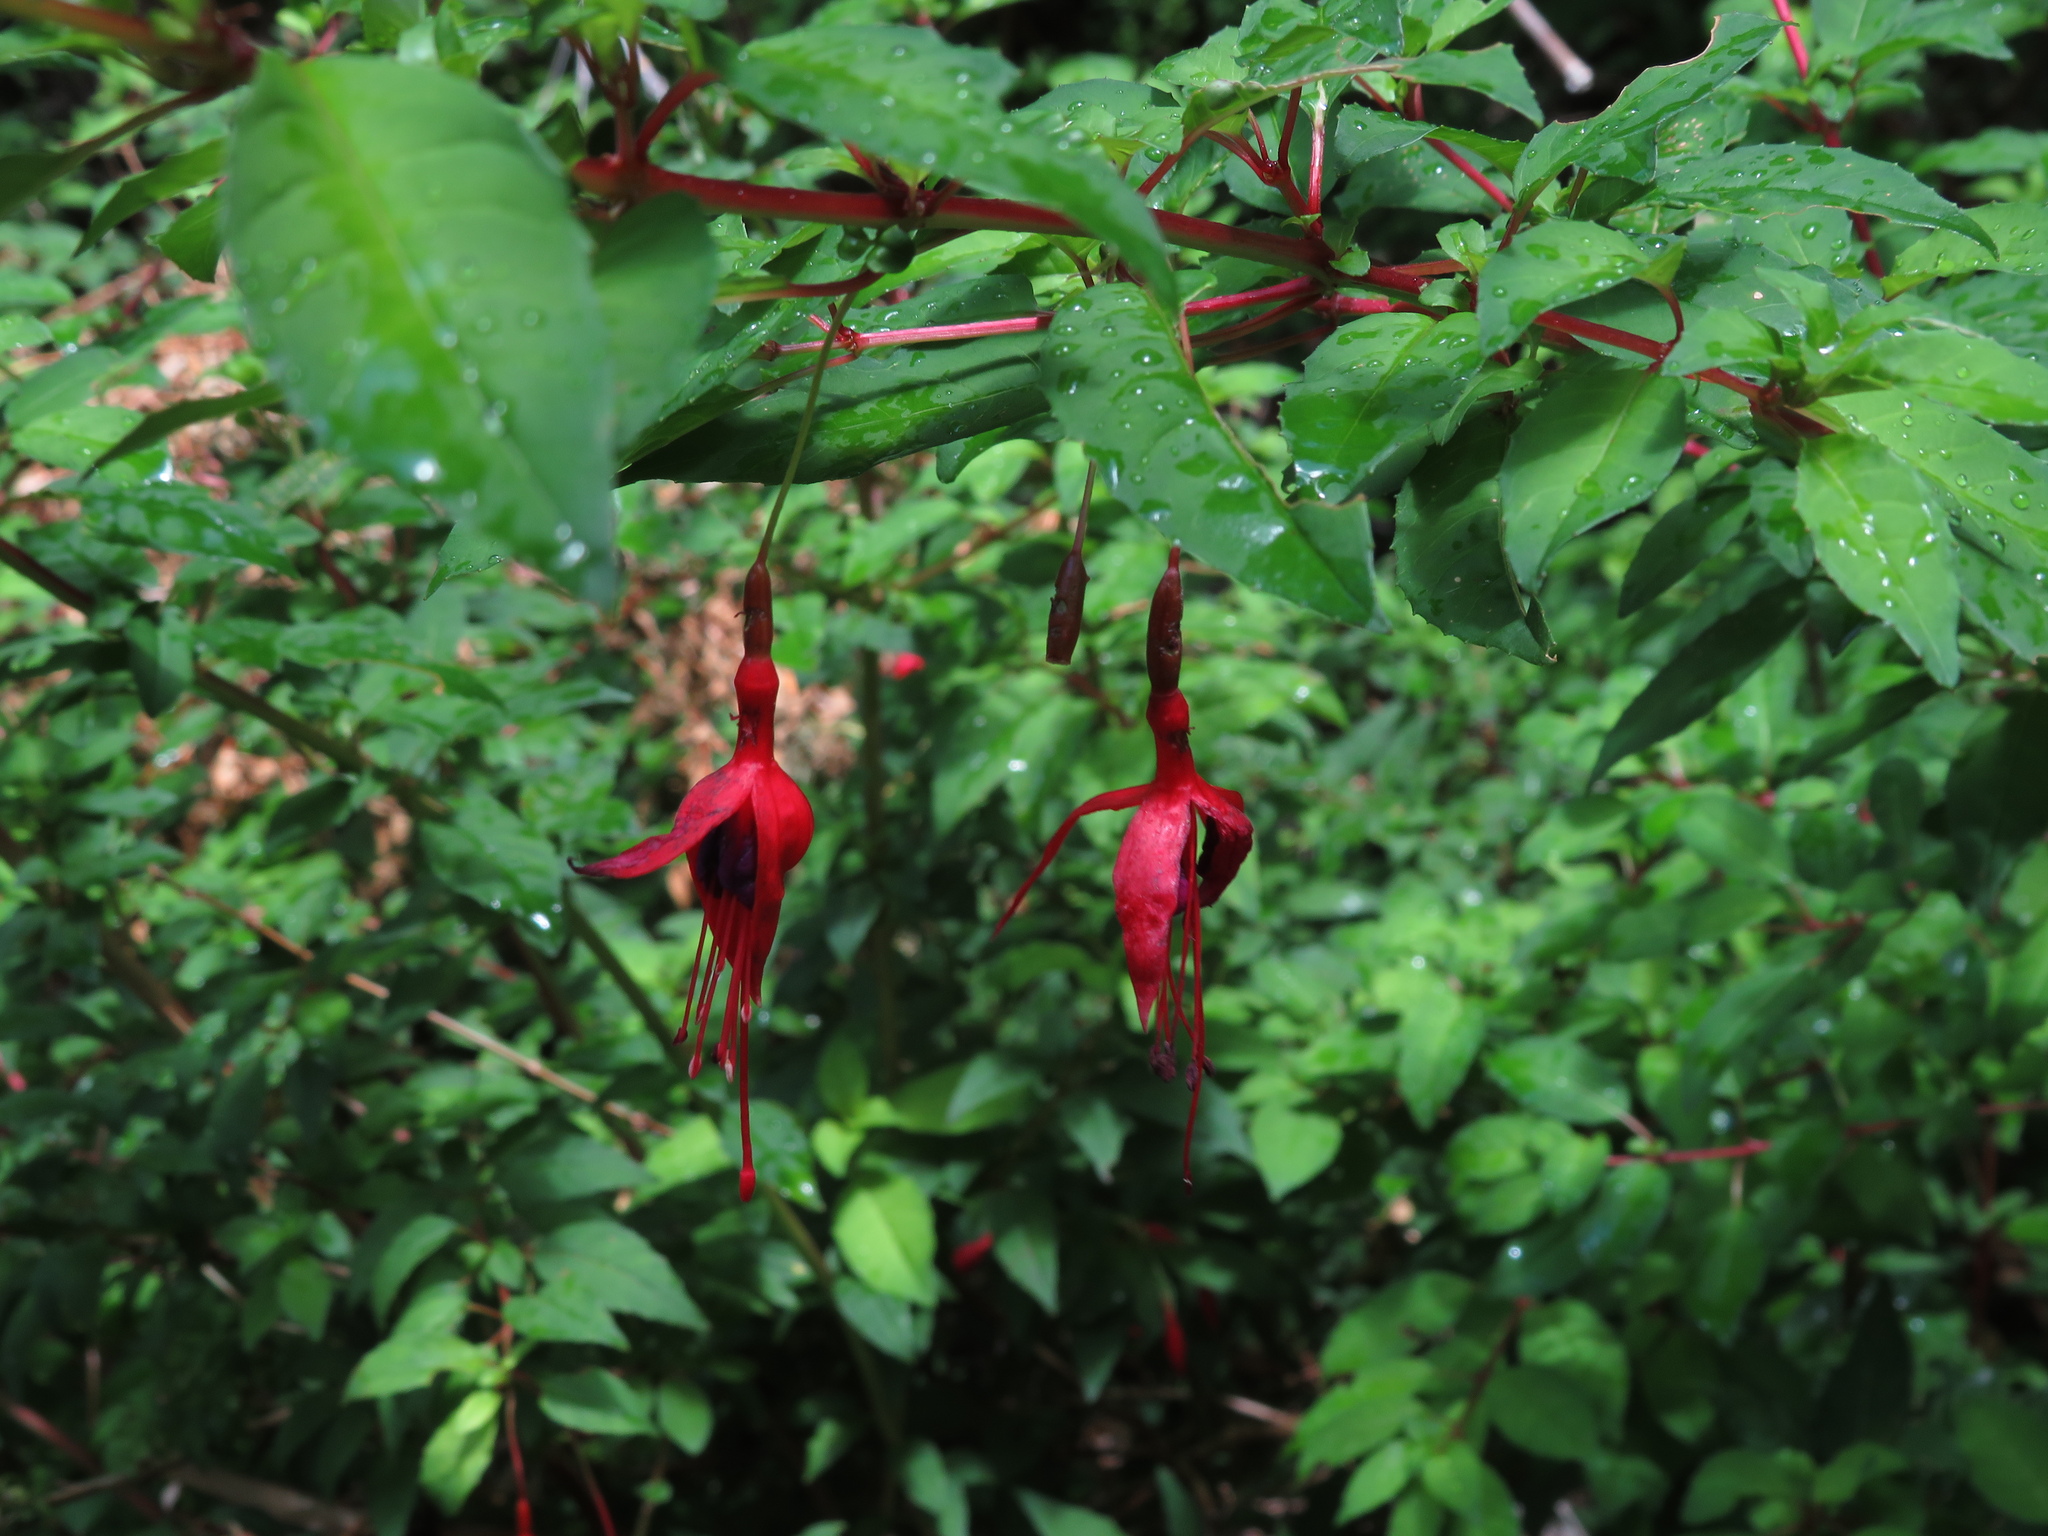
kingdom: Plantae
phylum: Tracheophyta
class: Magnoliopsida
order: Myrtales
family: Onagraceae
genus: Fuchsia
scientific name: Fuchsia magellanica
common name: Hardy fuchsia
